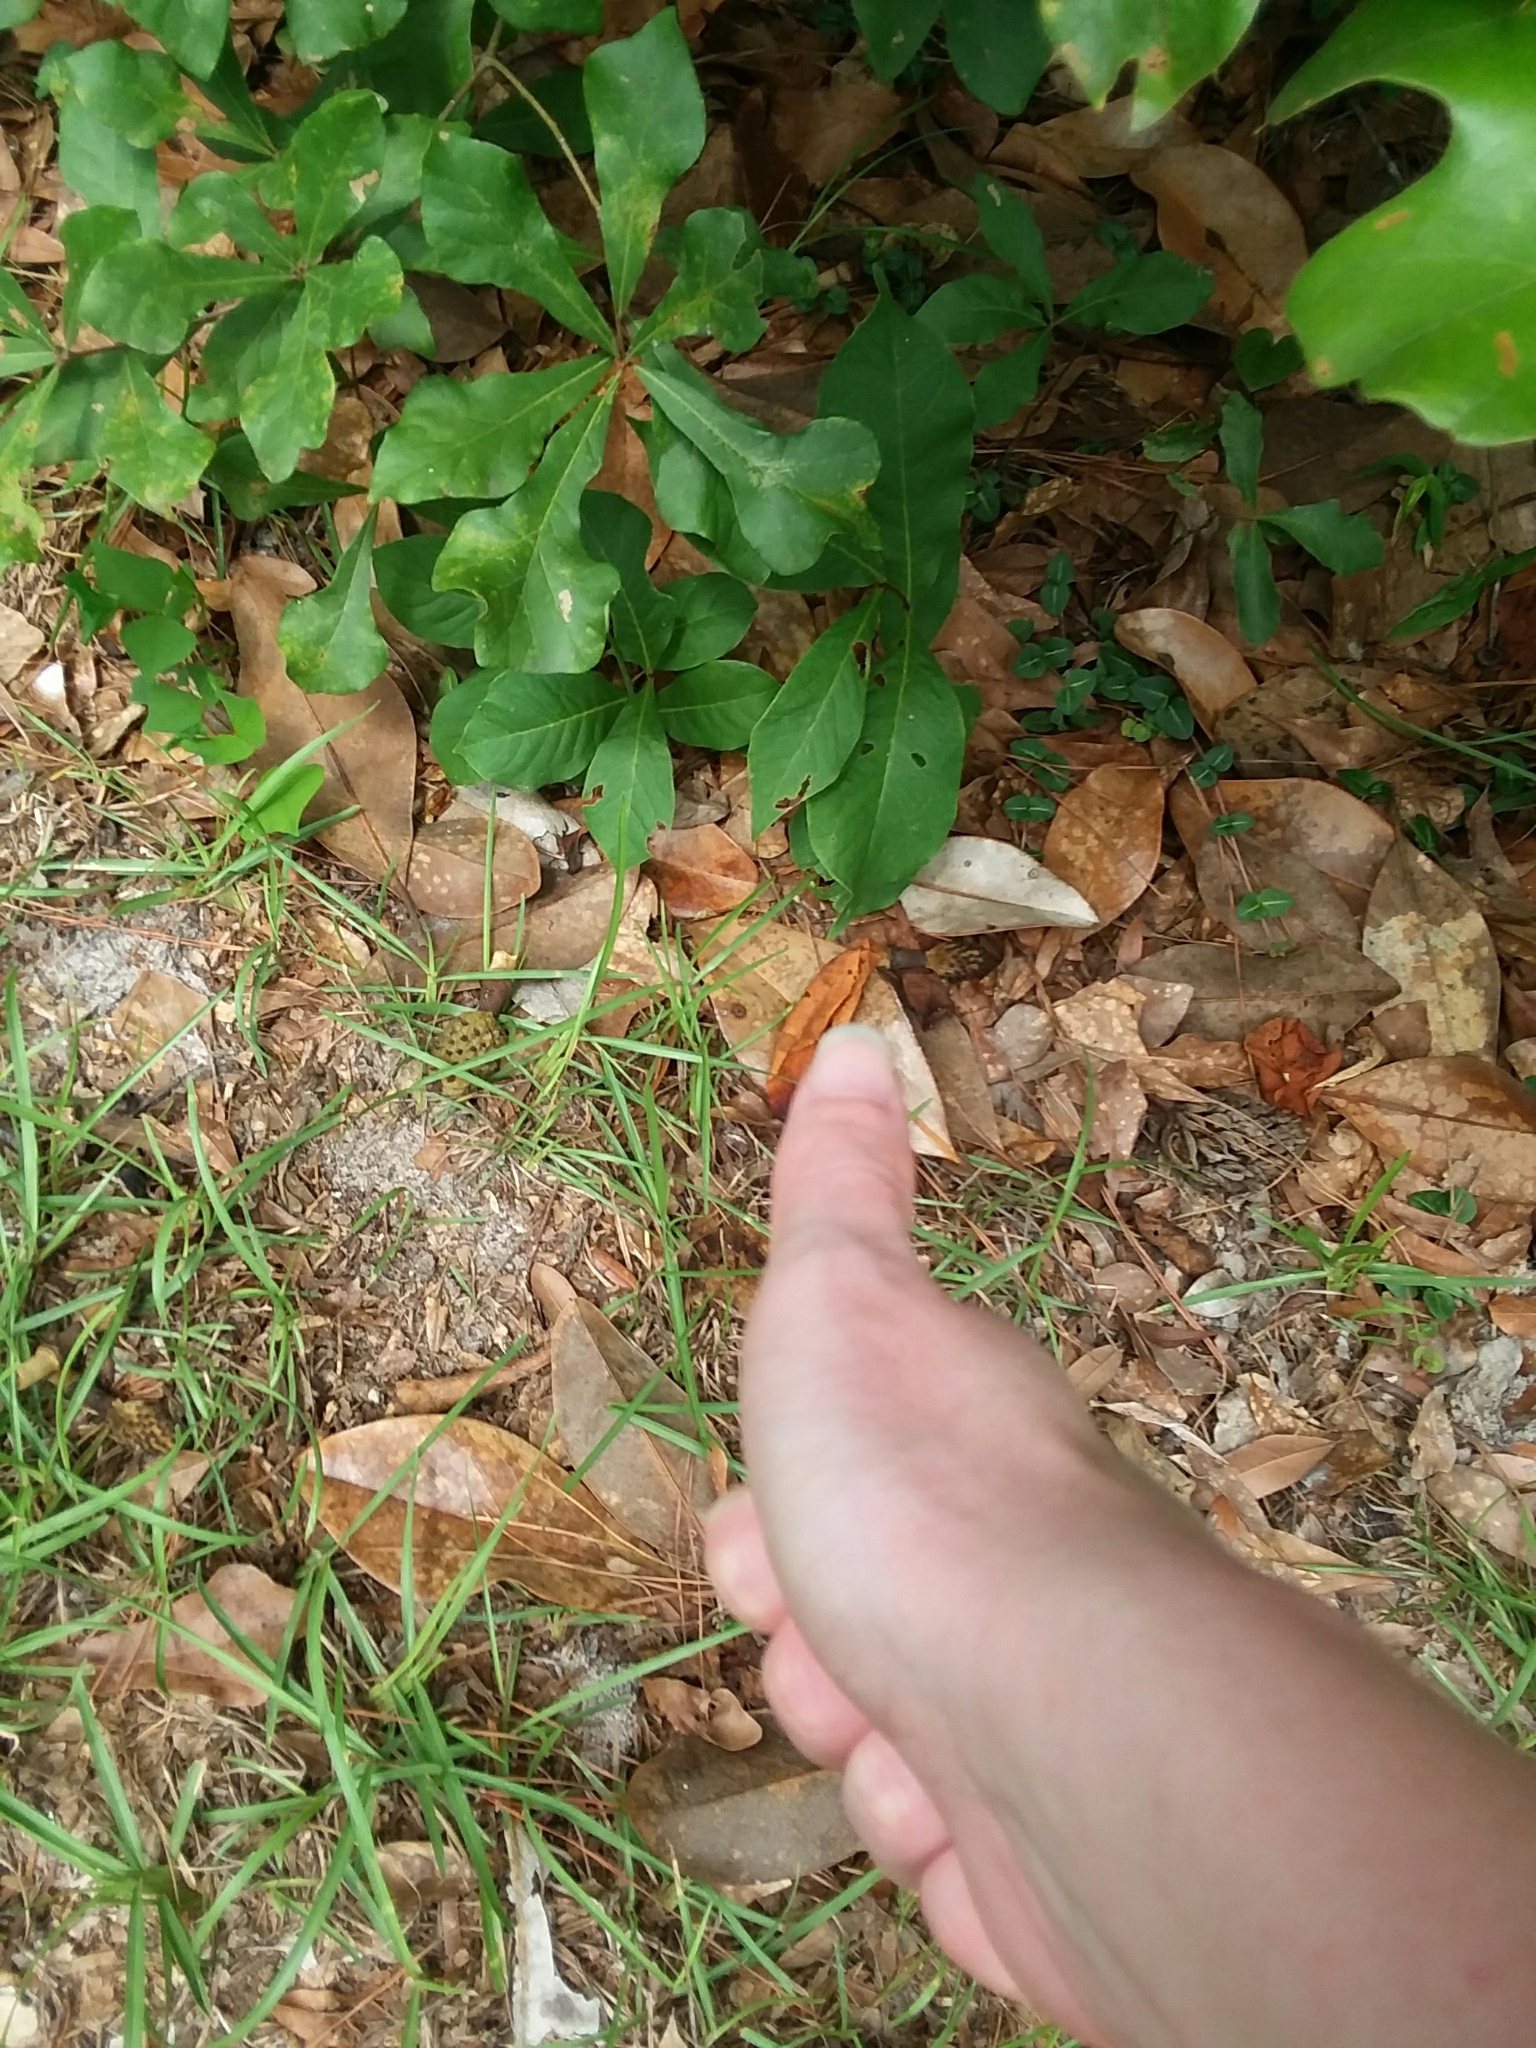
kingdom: Plantae
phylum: Tracheophyta
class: Magnoliopsida
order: Magnoliales
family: Annonaceae
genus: Asimina
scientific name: Asimina parviflora
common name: Dwarf pawpaw
